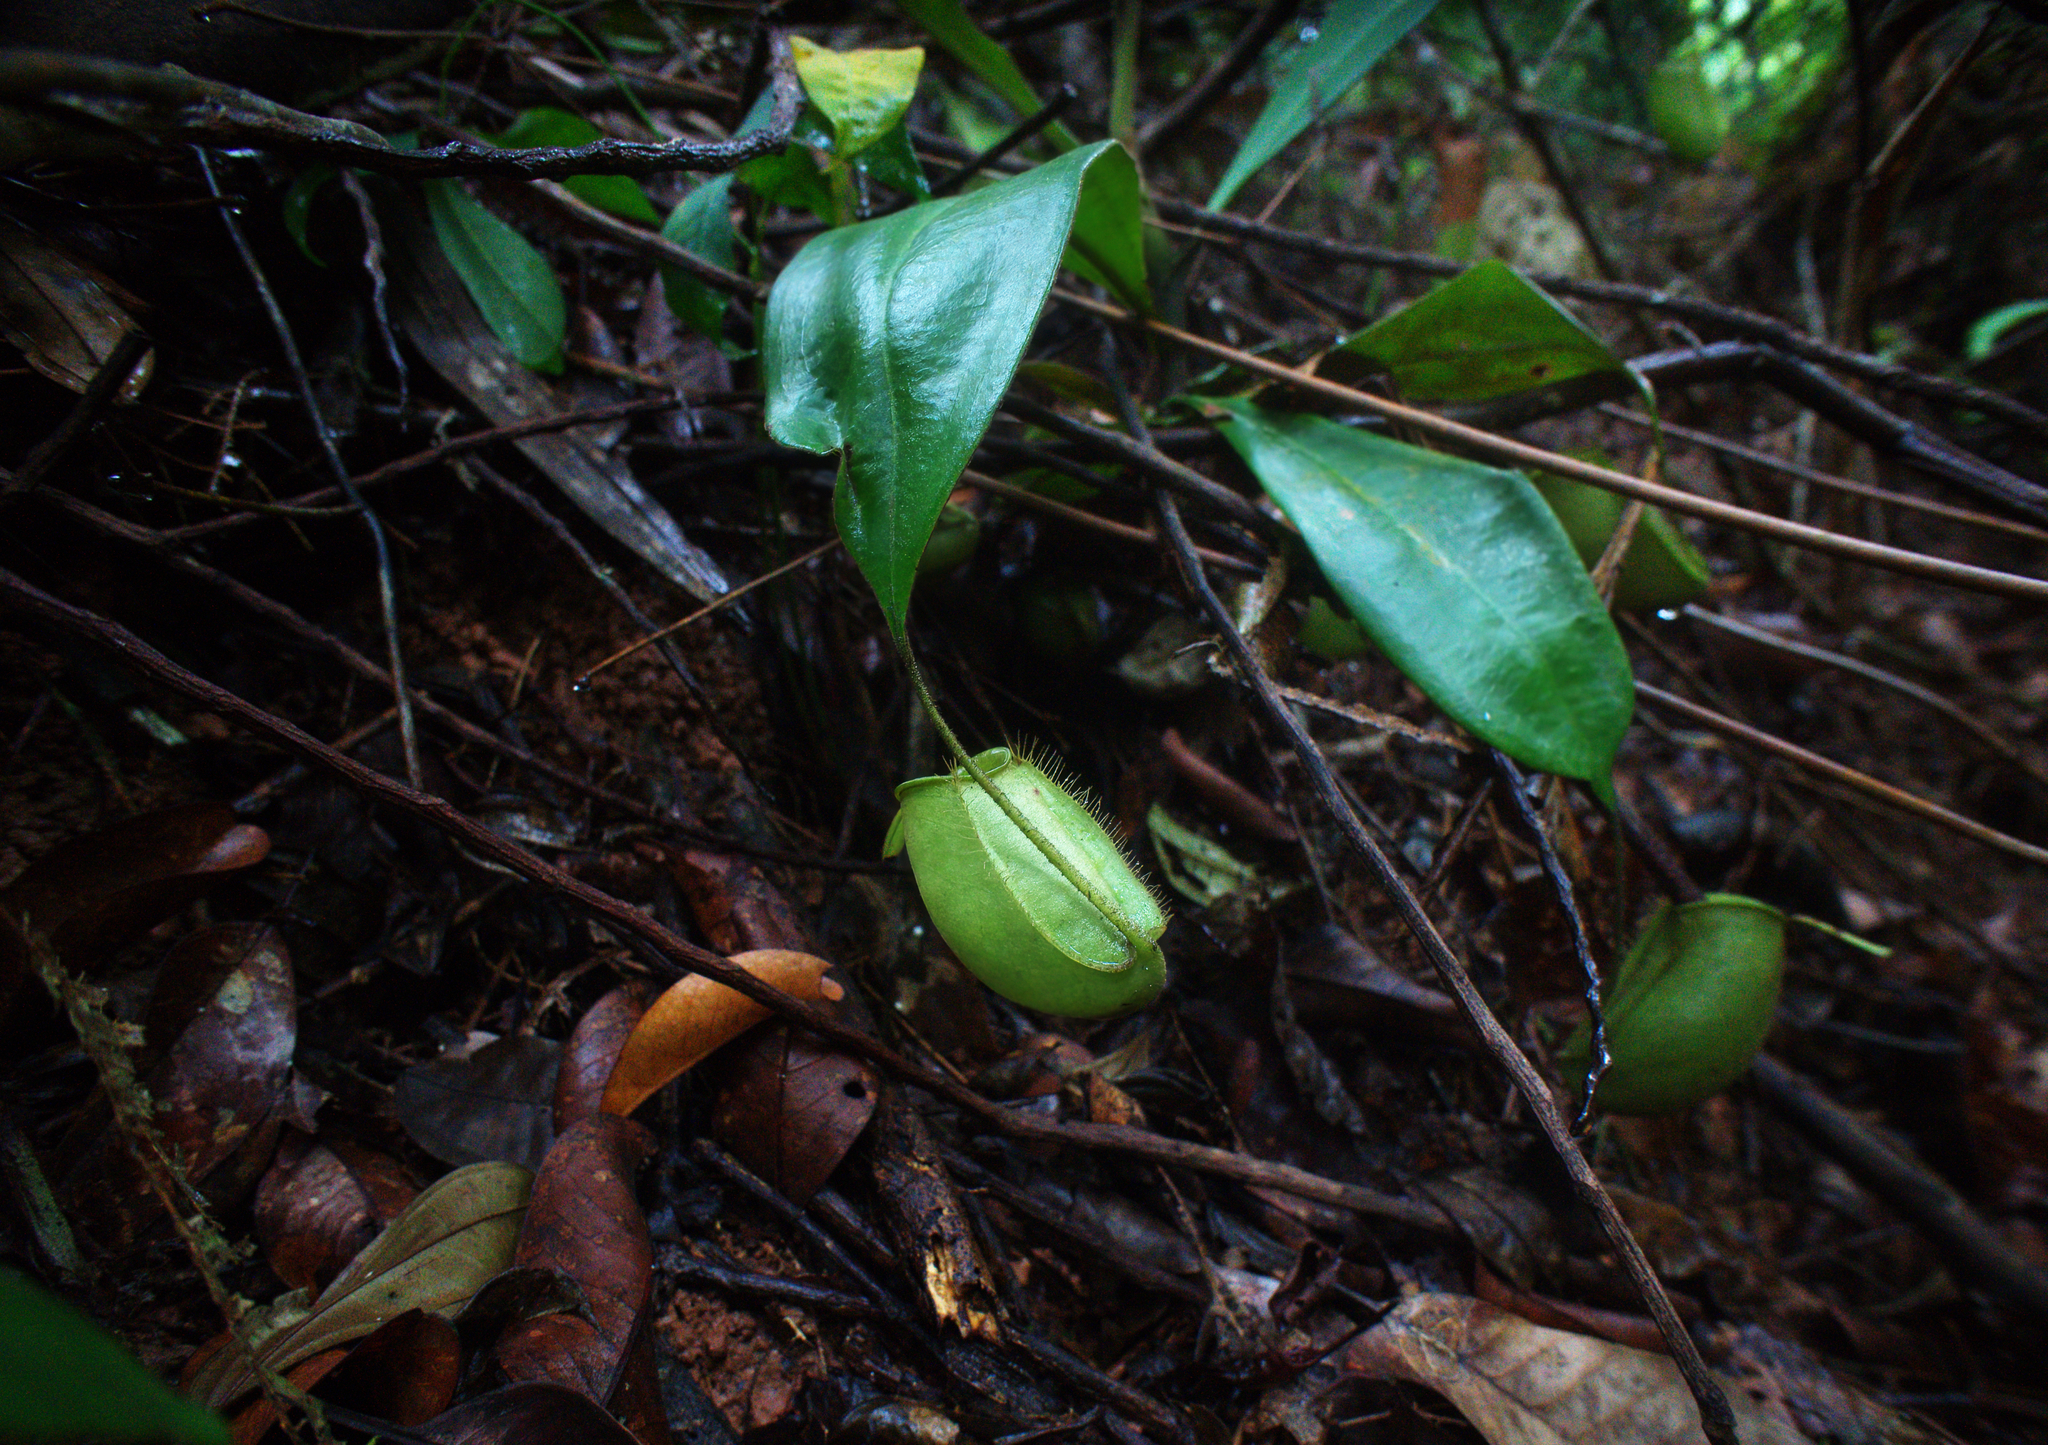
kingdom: Plantae
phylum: Tracheophyta
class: Magnoliopsida
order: Caryophyllales
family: Nepenthaceae
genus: Nepenthes
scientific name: Nepenthes ampullaria
